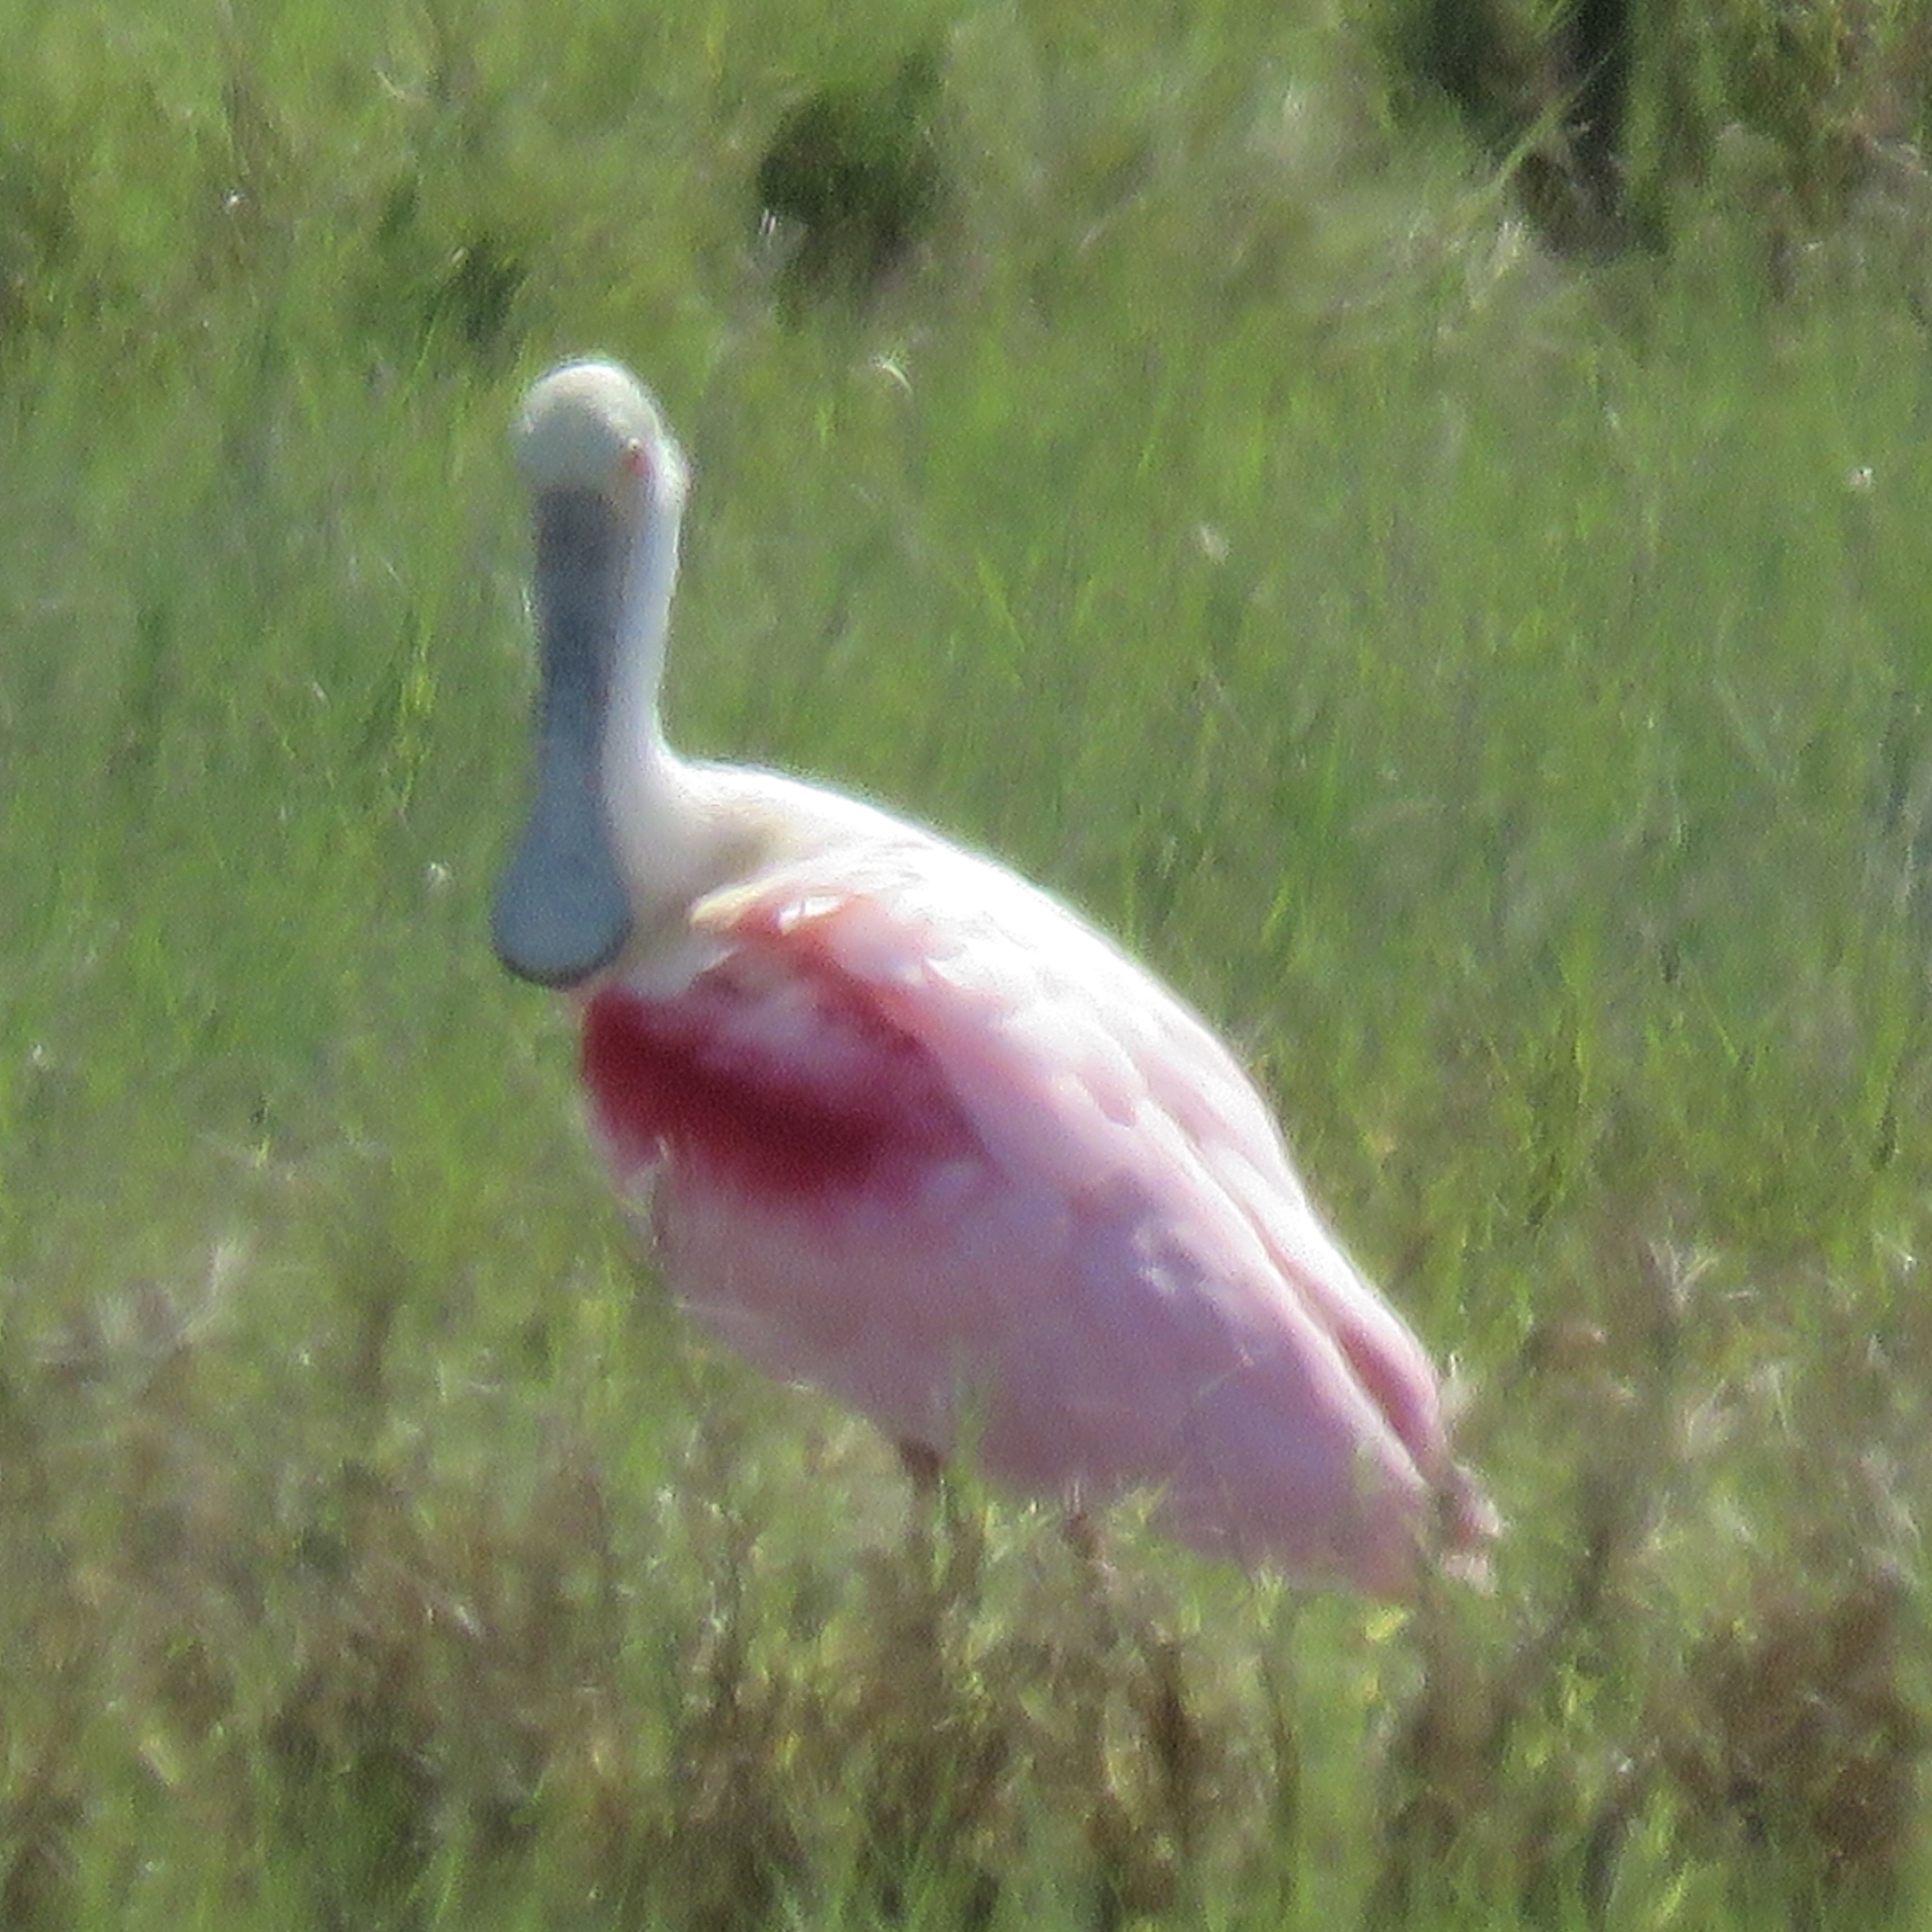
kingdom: Animalia
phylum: Chordata
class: Aves
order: Pelecaniformes
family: Threskiornithidae
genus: Platalea
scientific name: Platalea ajaja
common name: Roseate spoonbill
